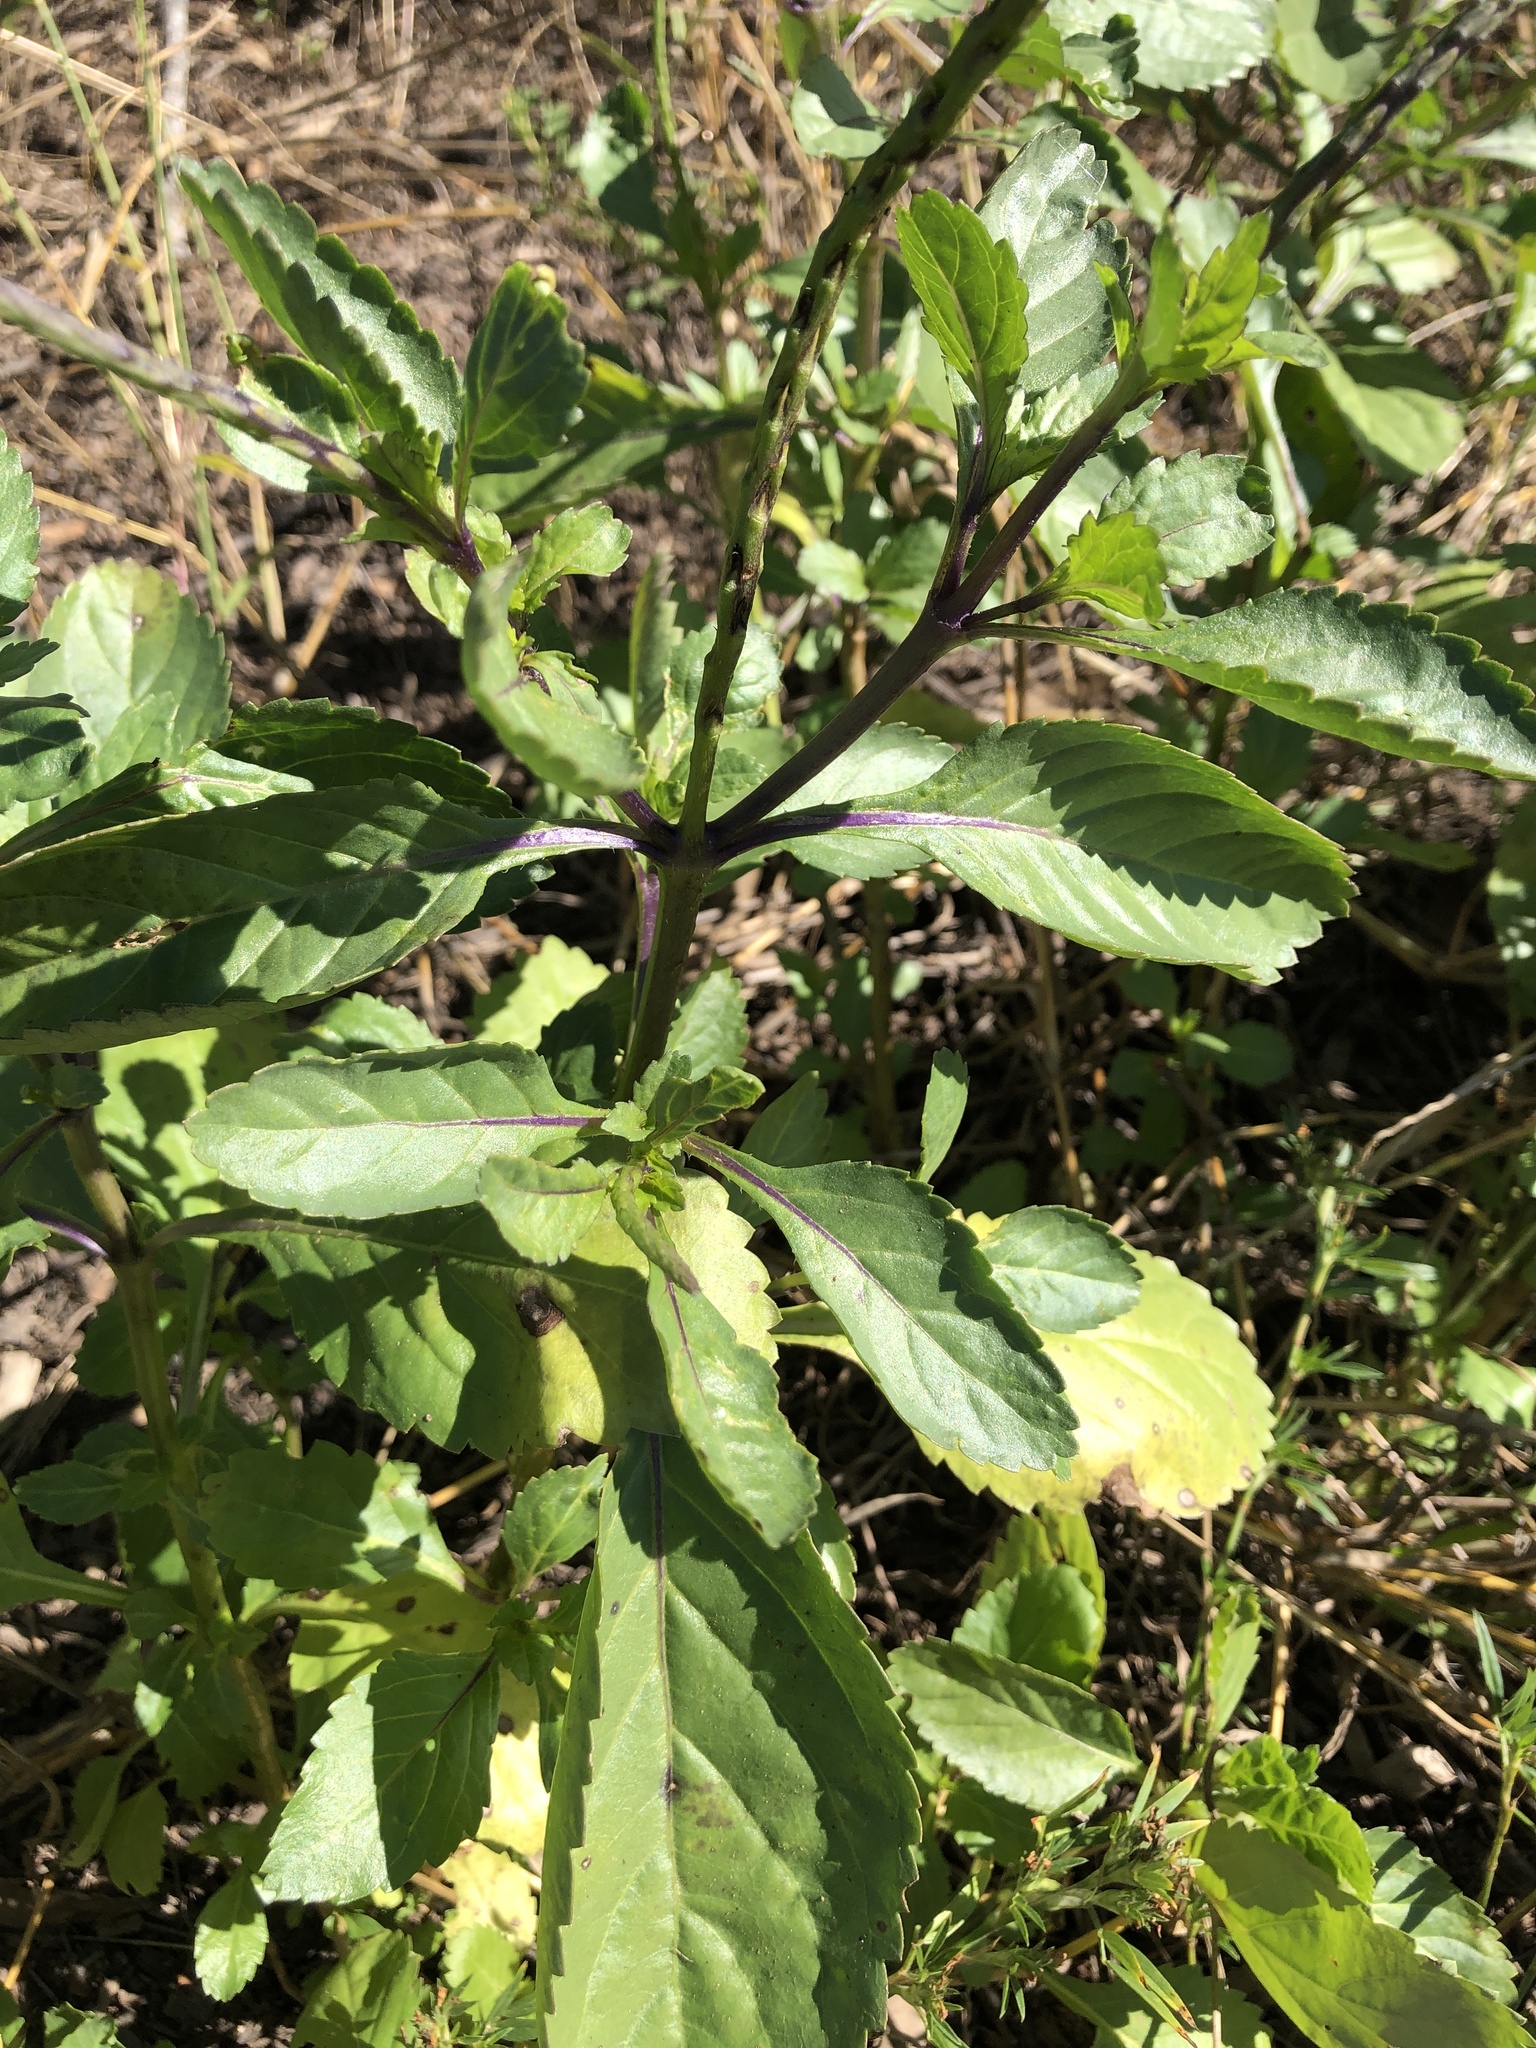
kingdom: Plantae
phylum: Tracheophyta
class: Magnoliopsida
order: Lamiales
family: Verbenaceae
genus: Stachytarpheta
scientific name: Stachytarpheta jamaicensis
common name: Light-blue snakeweed
